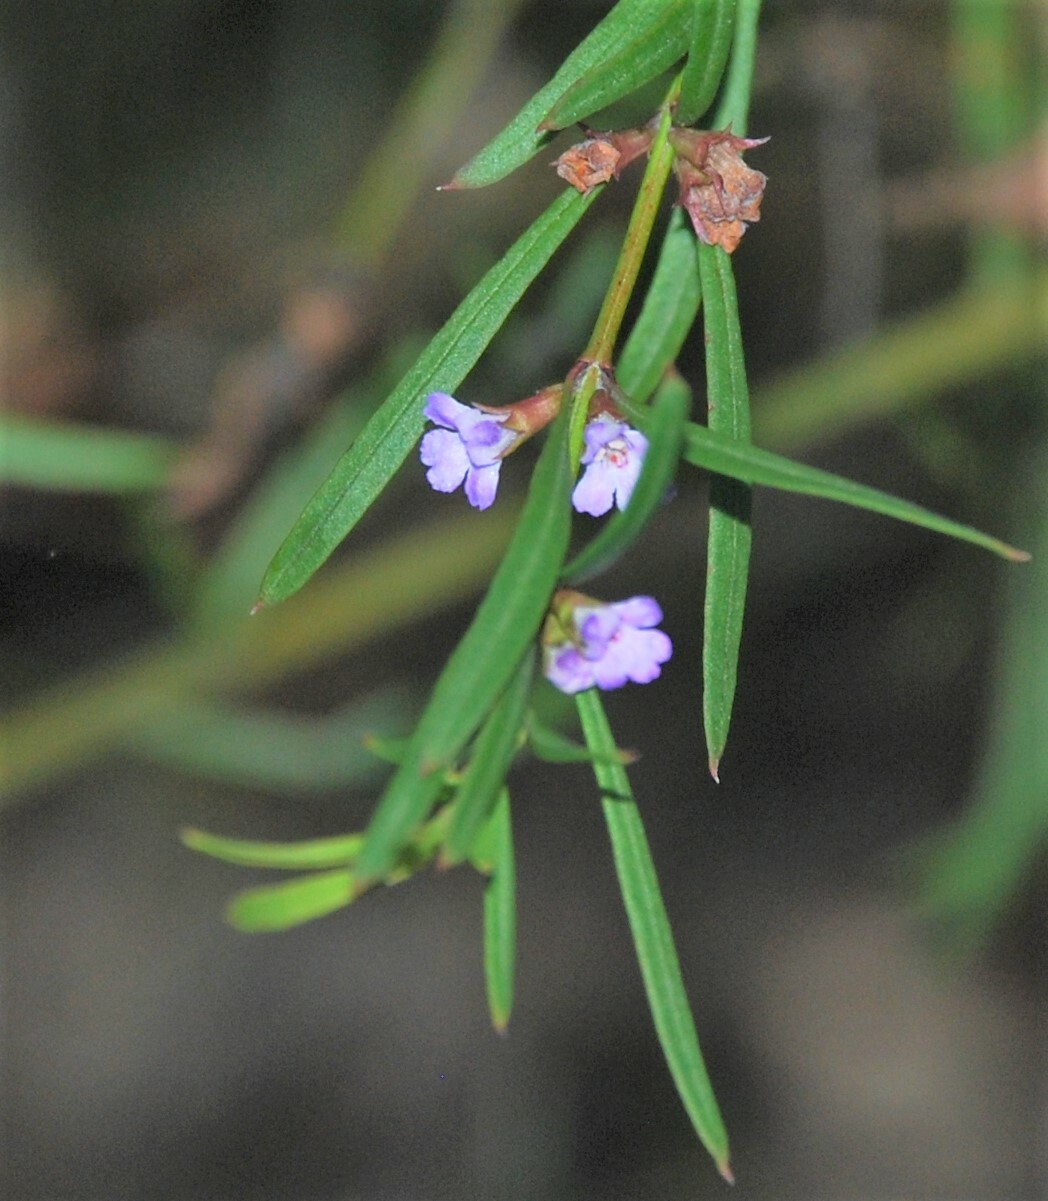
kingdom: Plantae
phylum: Tracheophyta
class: Magnoliopsida
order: Lamiales
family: Lamiaceae
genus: Hemigenia
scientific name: Hemigenia cuneifolia
